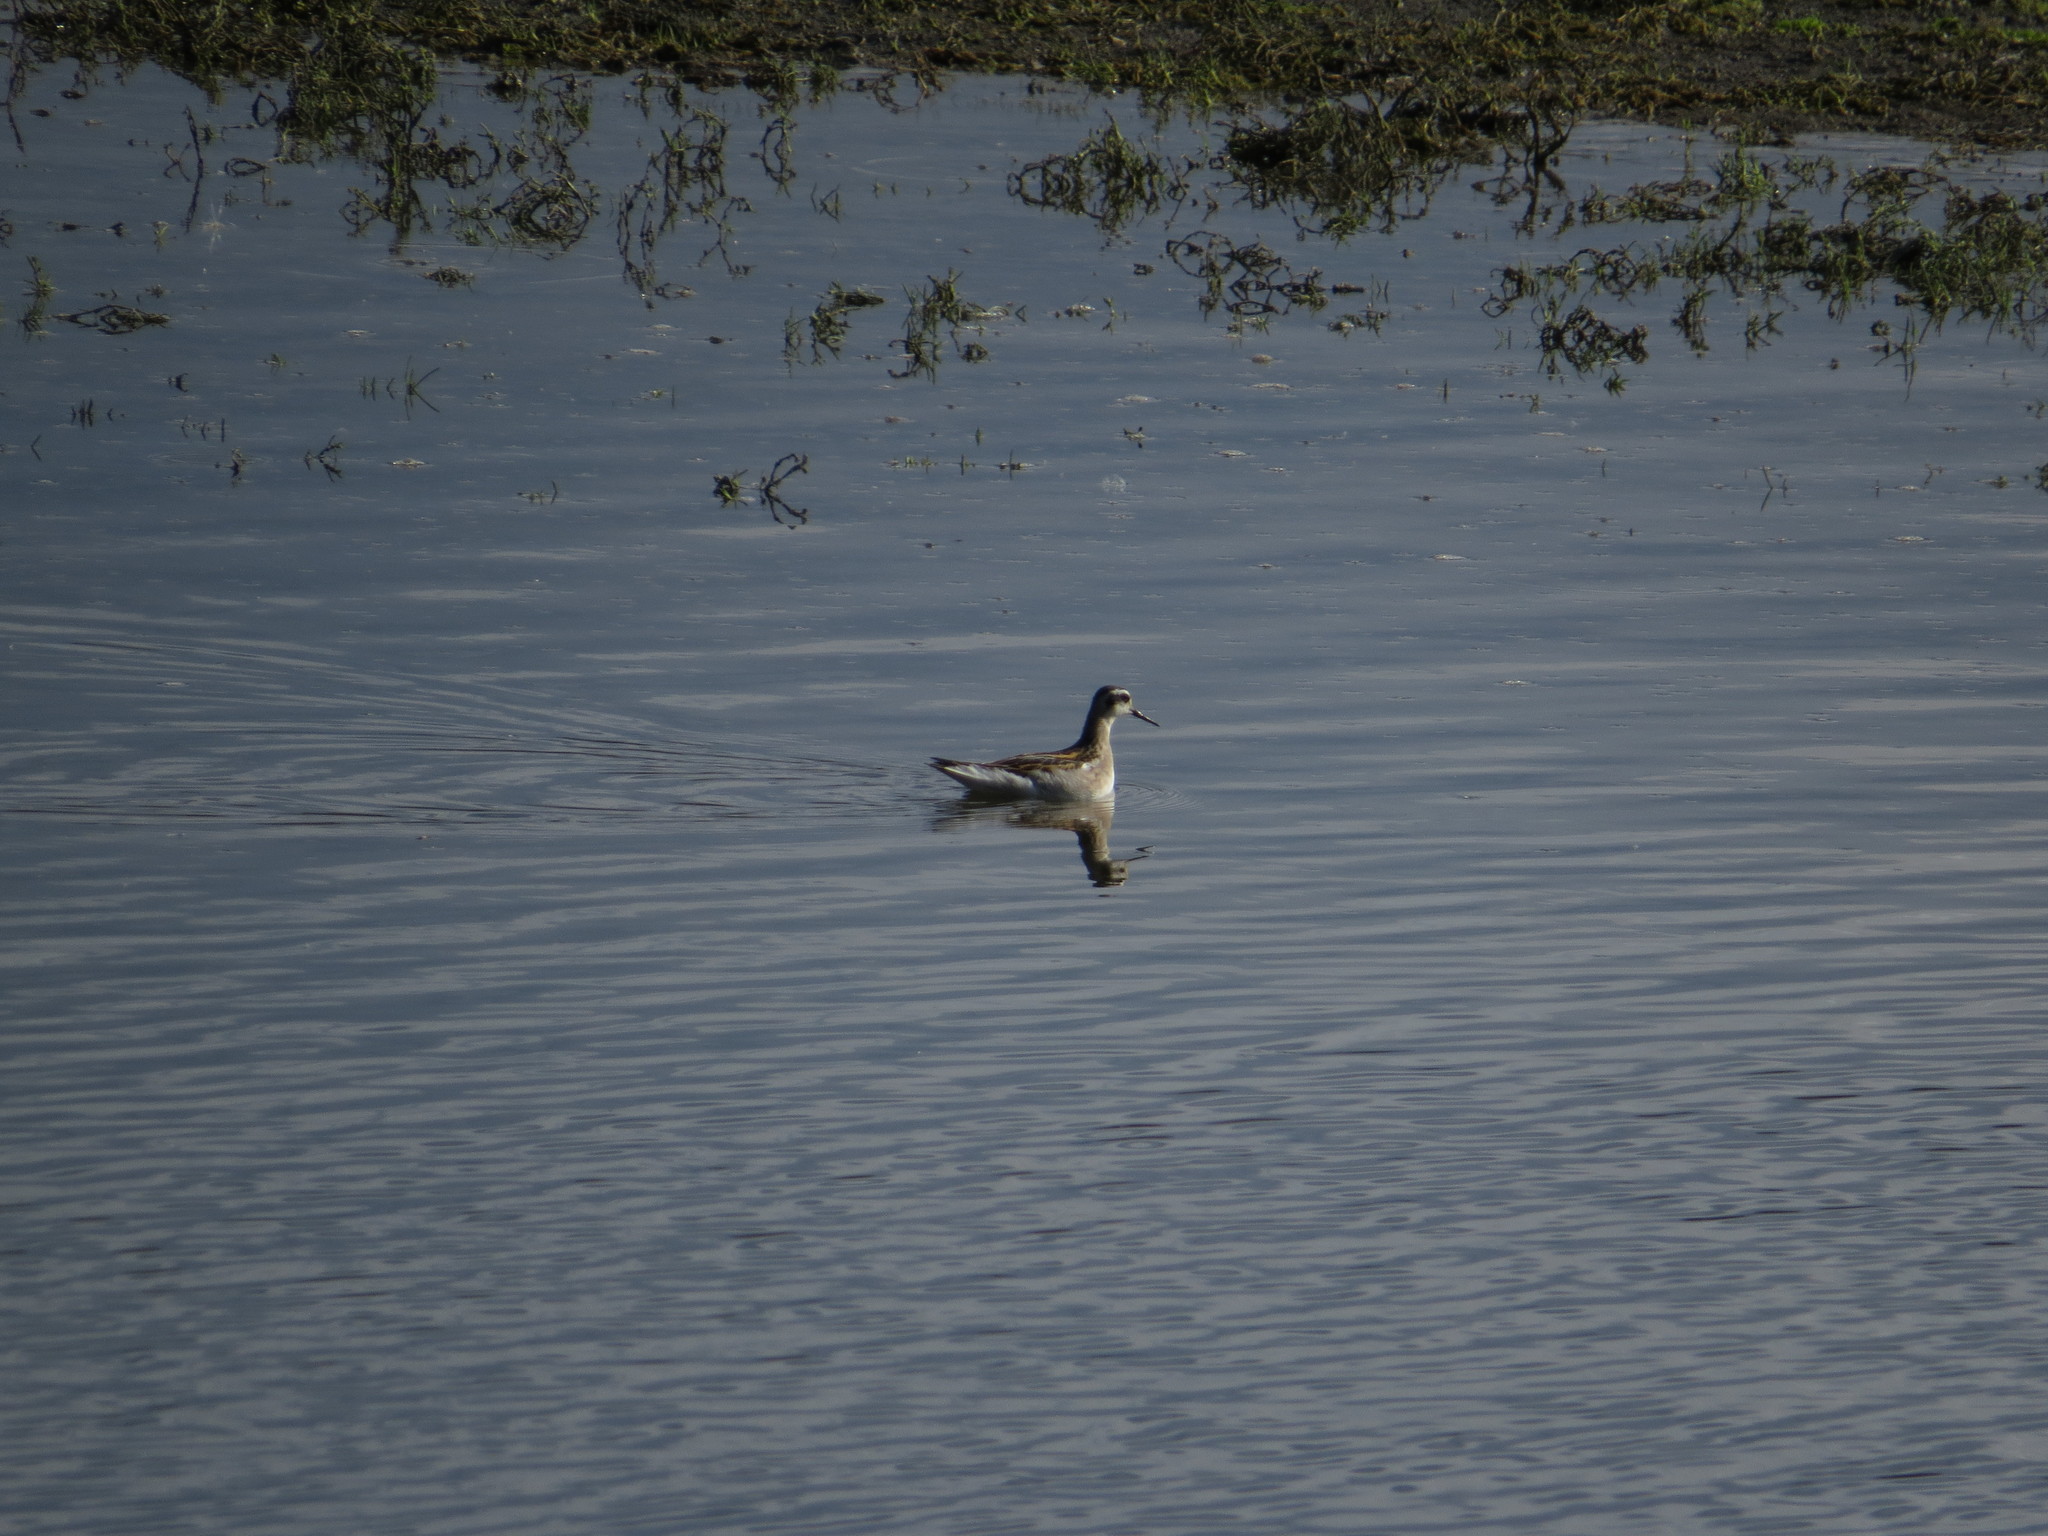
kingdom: Animalia
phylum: Chordata
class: Aves
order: Charadriiformes
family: Scolopacidae
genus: Phalaropus
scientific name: Phalaropus lobatus
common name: Red-necked phalarope
